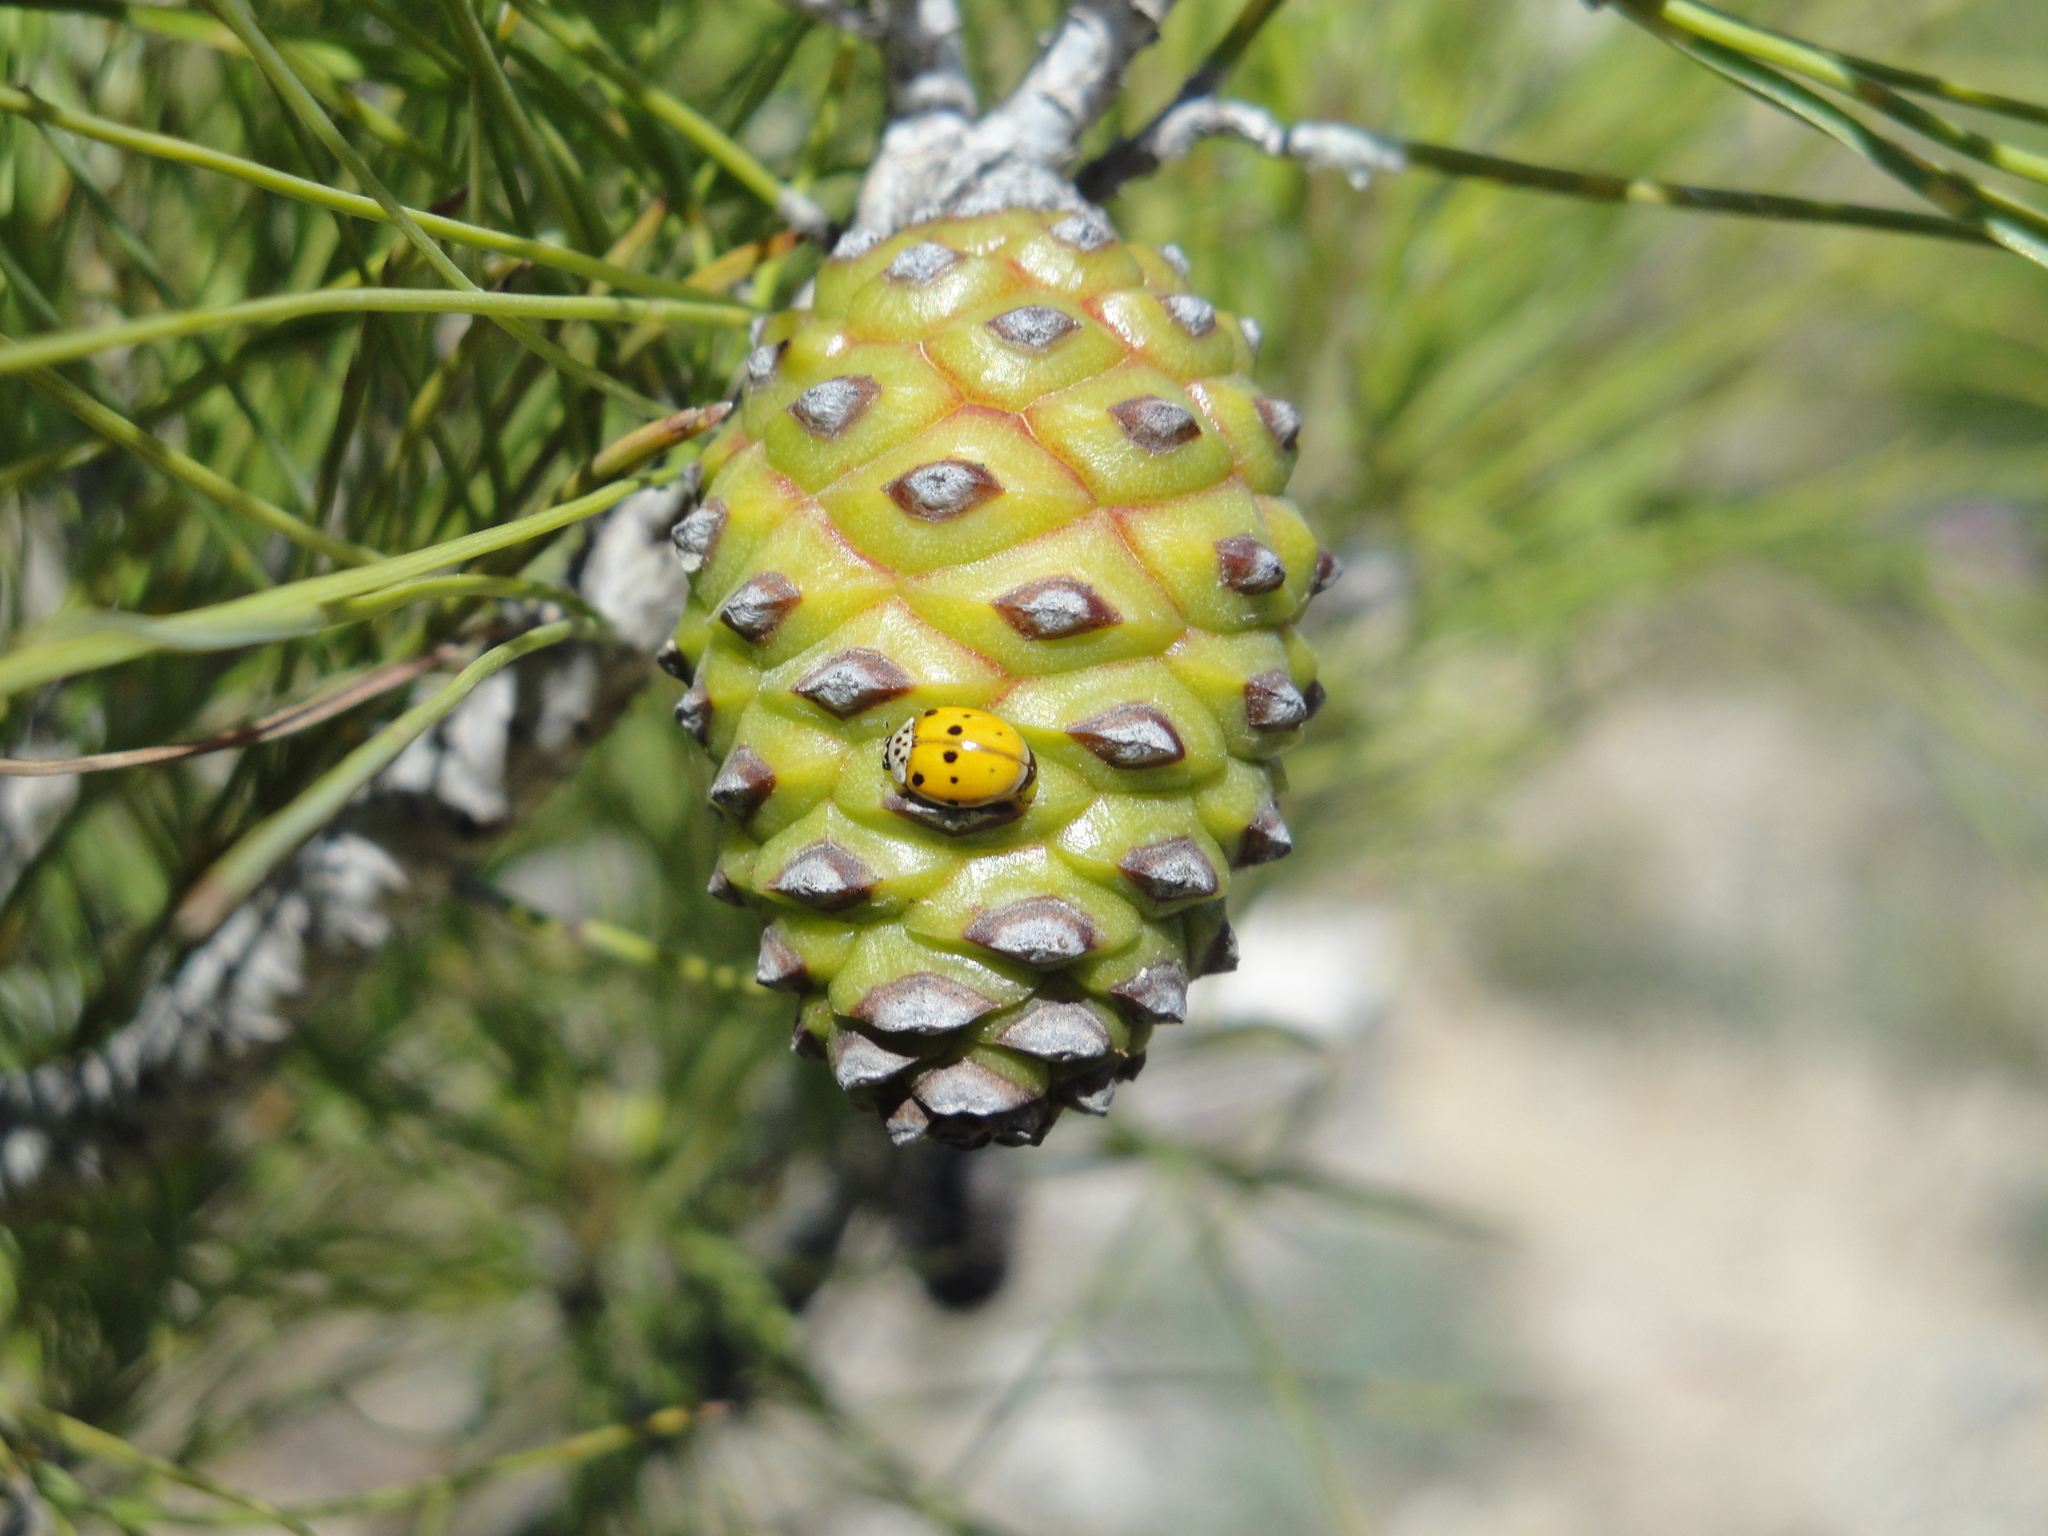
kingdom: Animalia
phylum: Arthropoda
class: Insecta
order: Coleoptera
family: Coccinellidae
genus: Adalia
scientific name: Adalia decempunctata
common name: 10-spot ladybird
